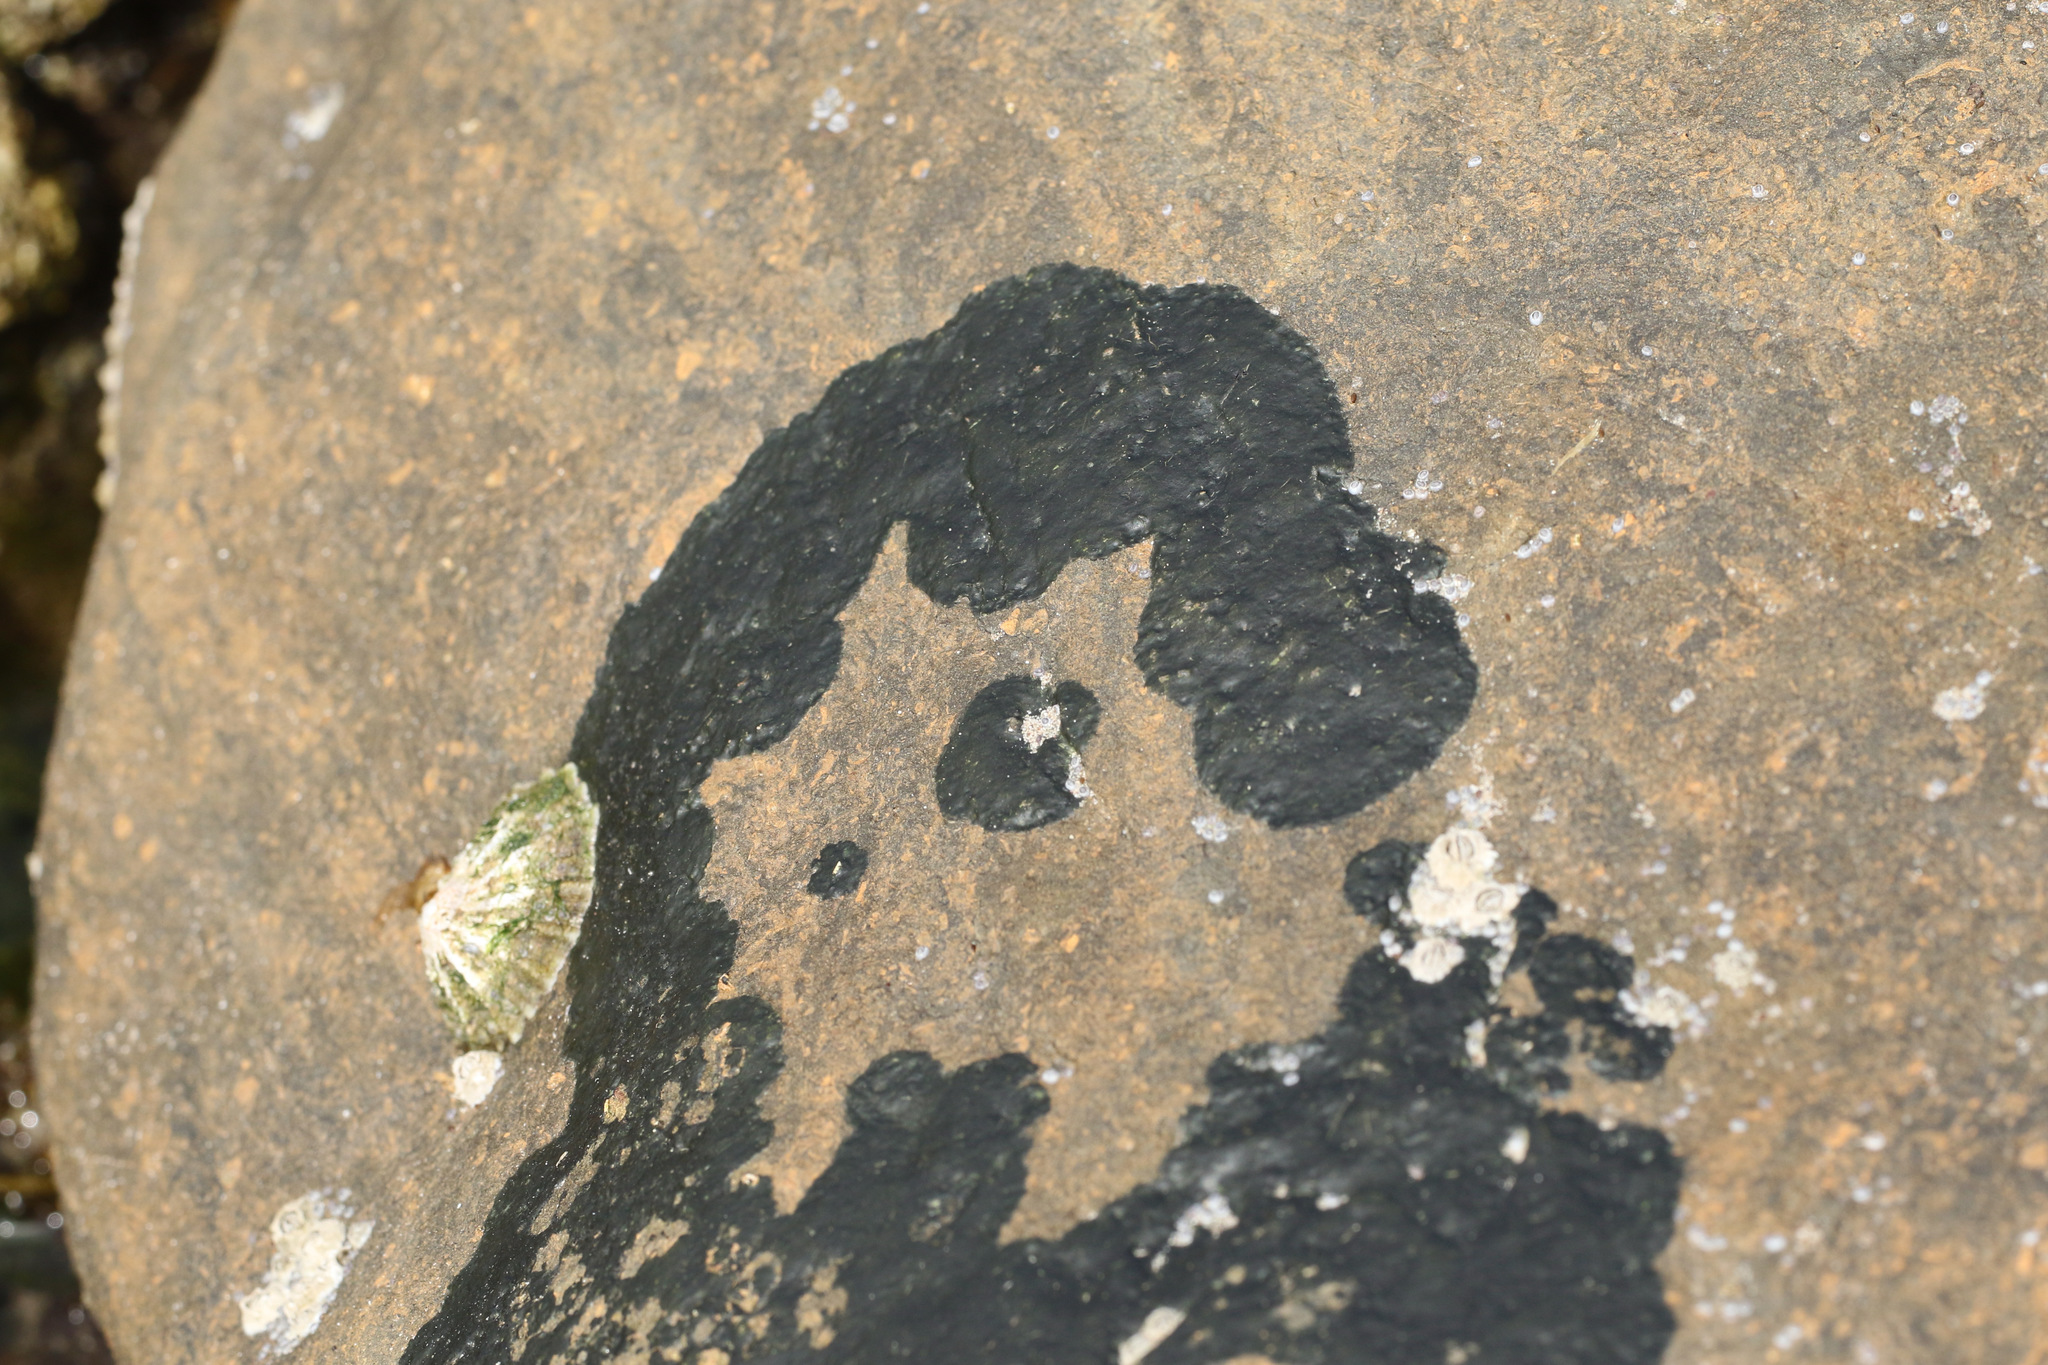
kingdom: Fungi
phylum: Ascomycota
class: Eurotiomycetes
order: Verrucariales
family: Verrucariaceae
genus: Wahlenbergiella
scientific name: Wahlenbergiella mucosa
